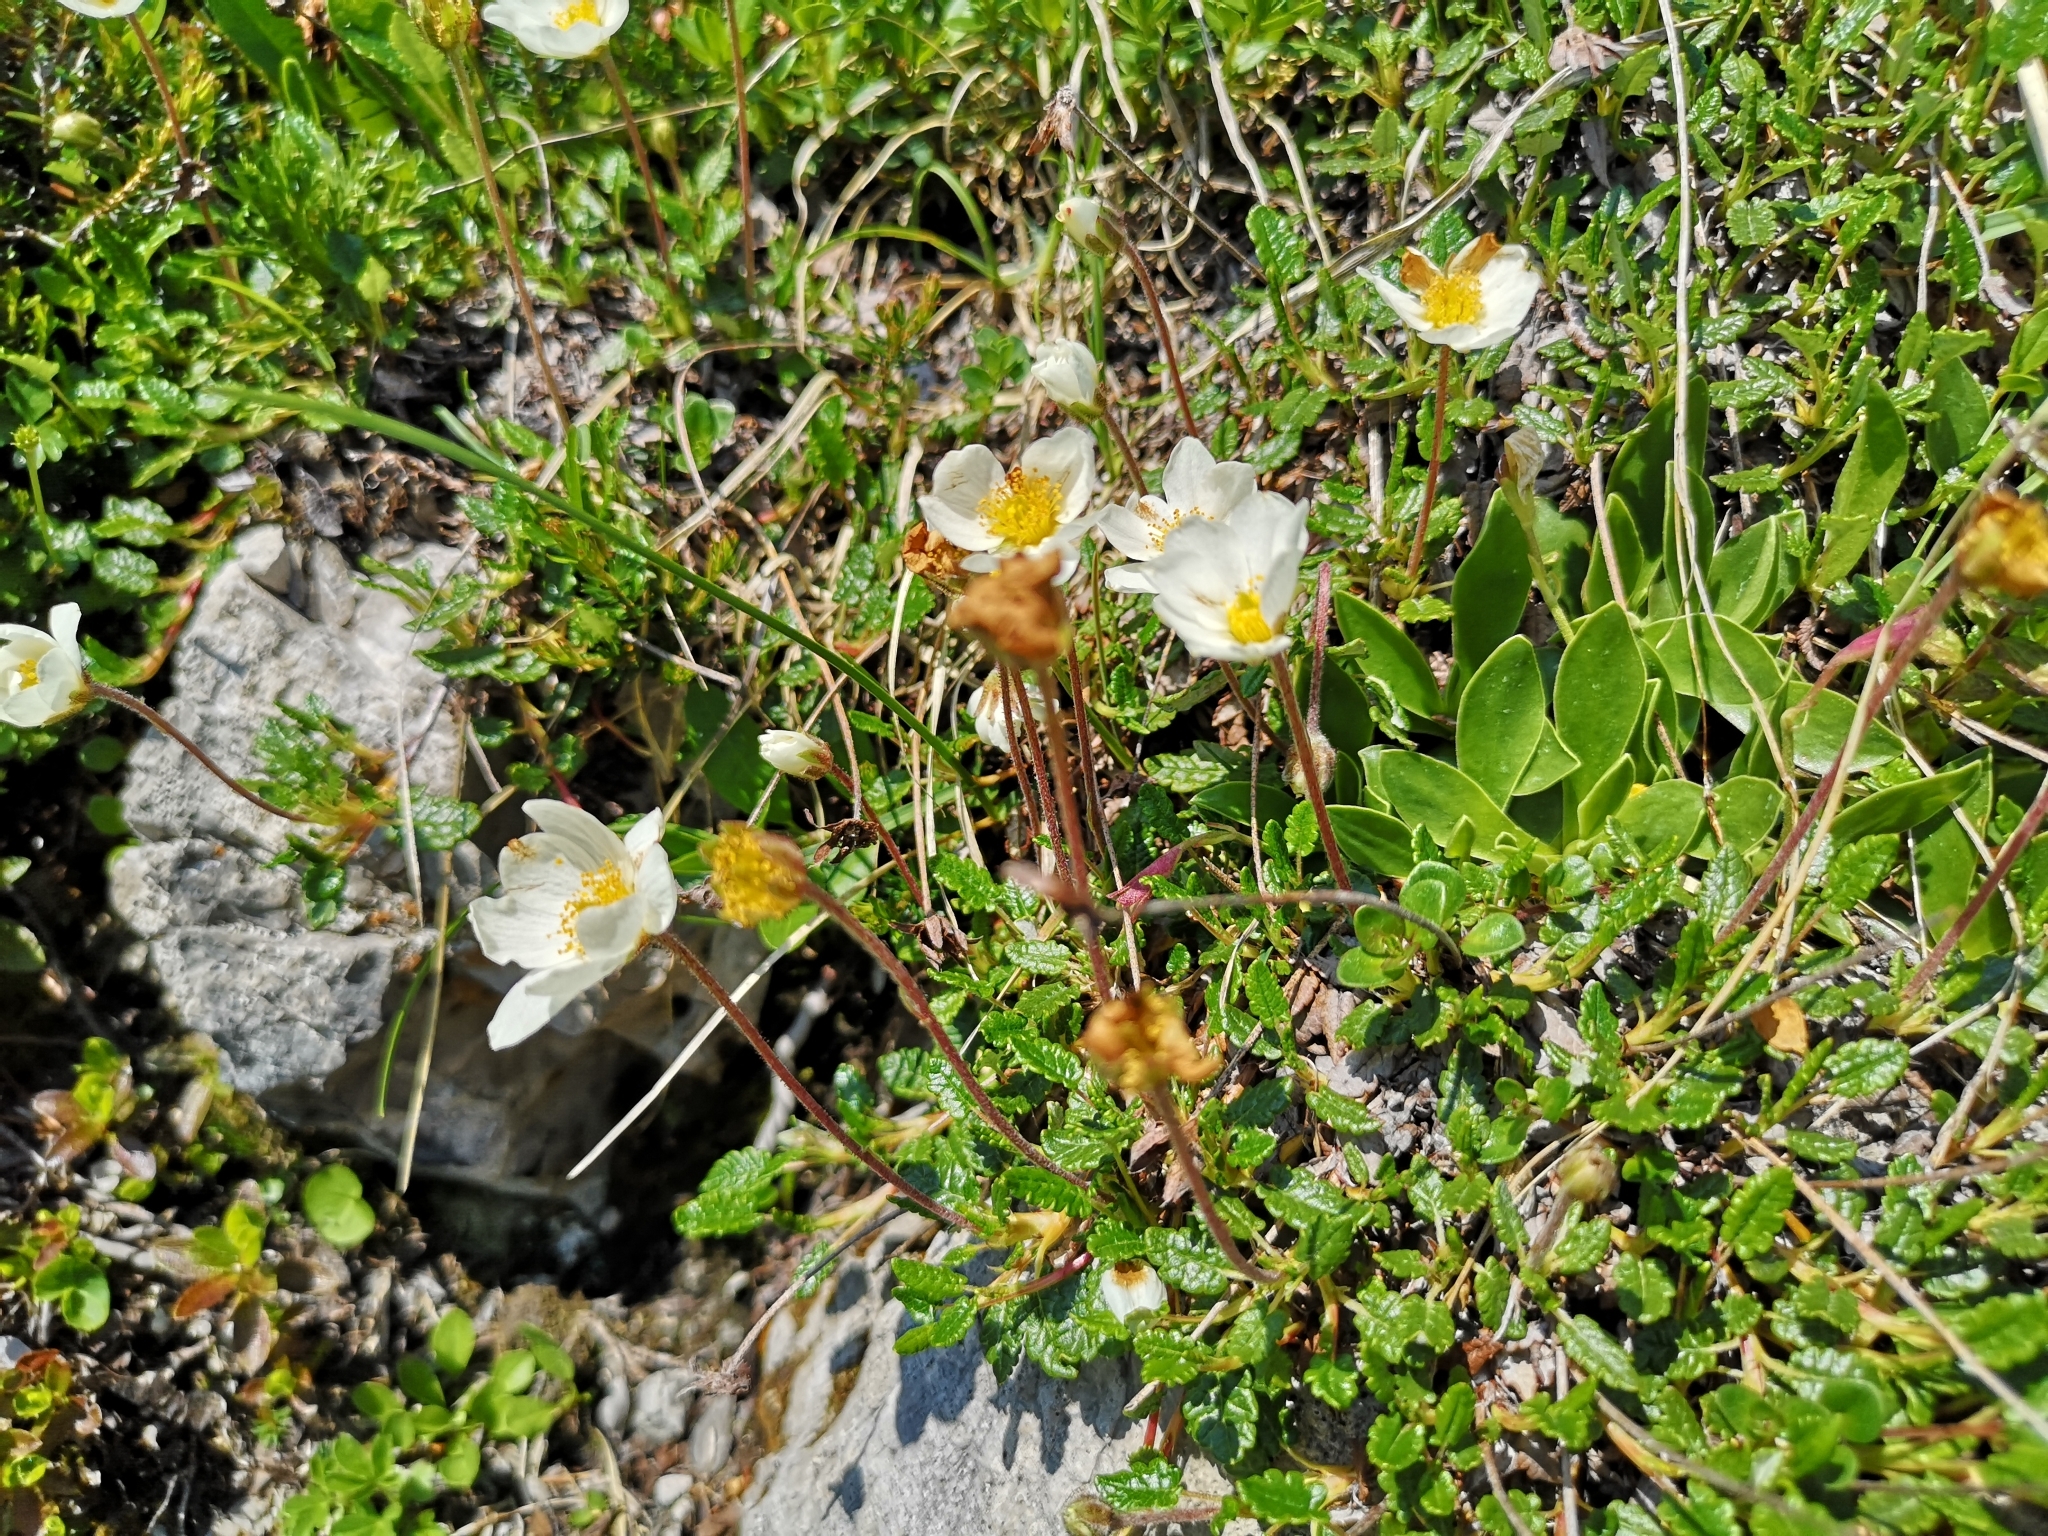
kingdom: Plantae
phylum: Tracheophyta
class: Magnoliopsida
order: Rosales
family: Rosaceae
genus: Dryas
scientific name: Dryas octopetala
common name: Eight-petal mountain-avens
